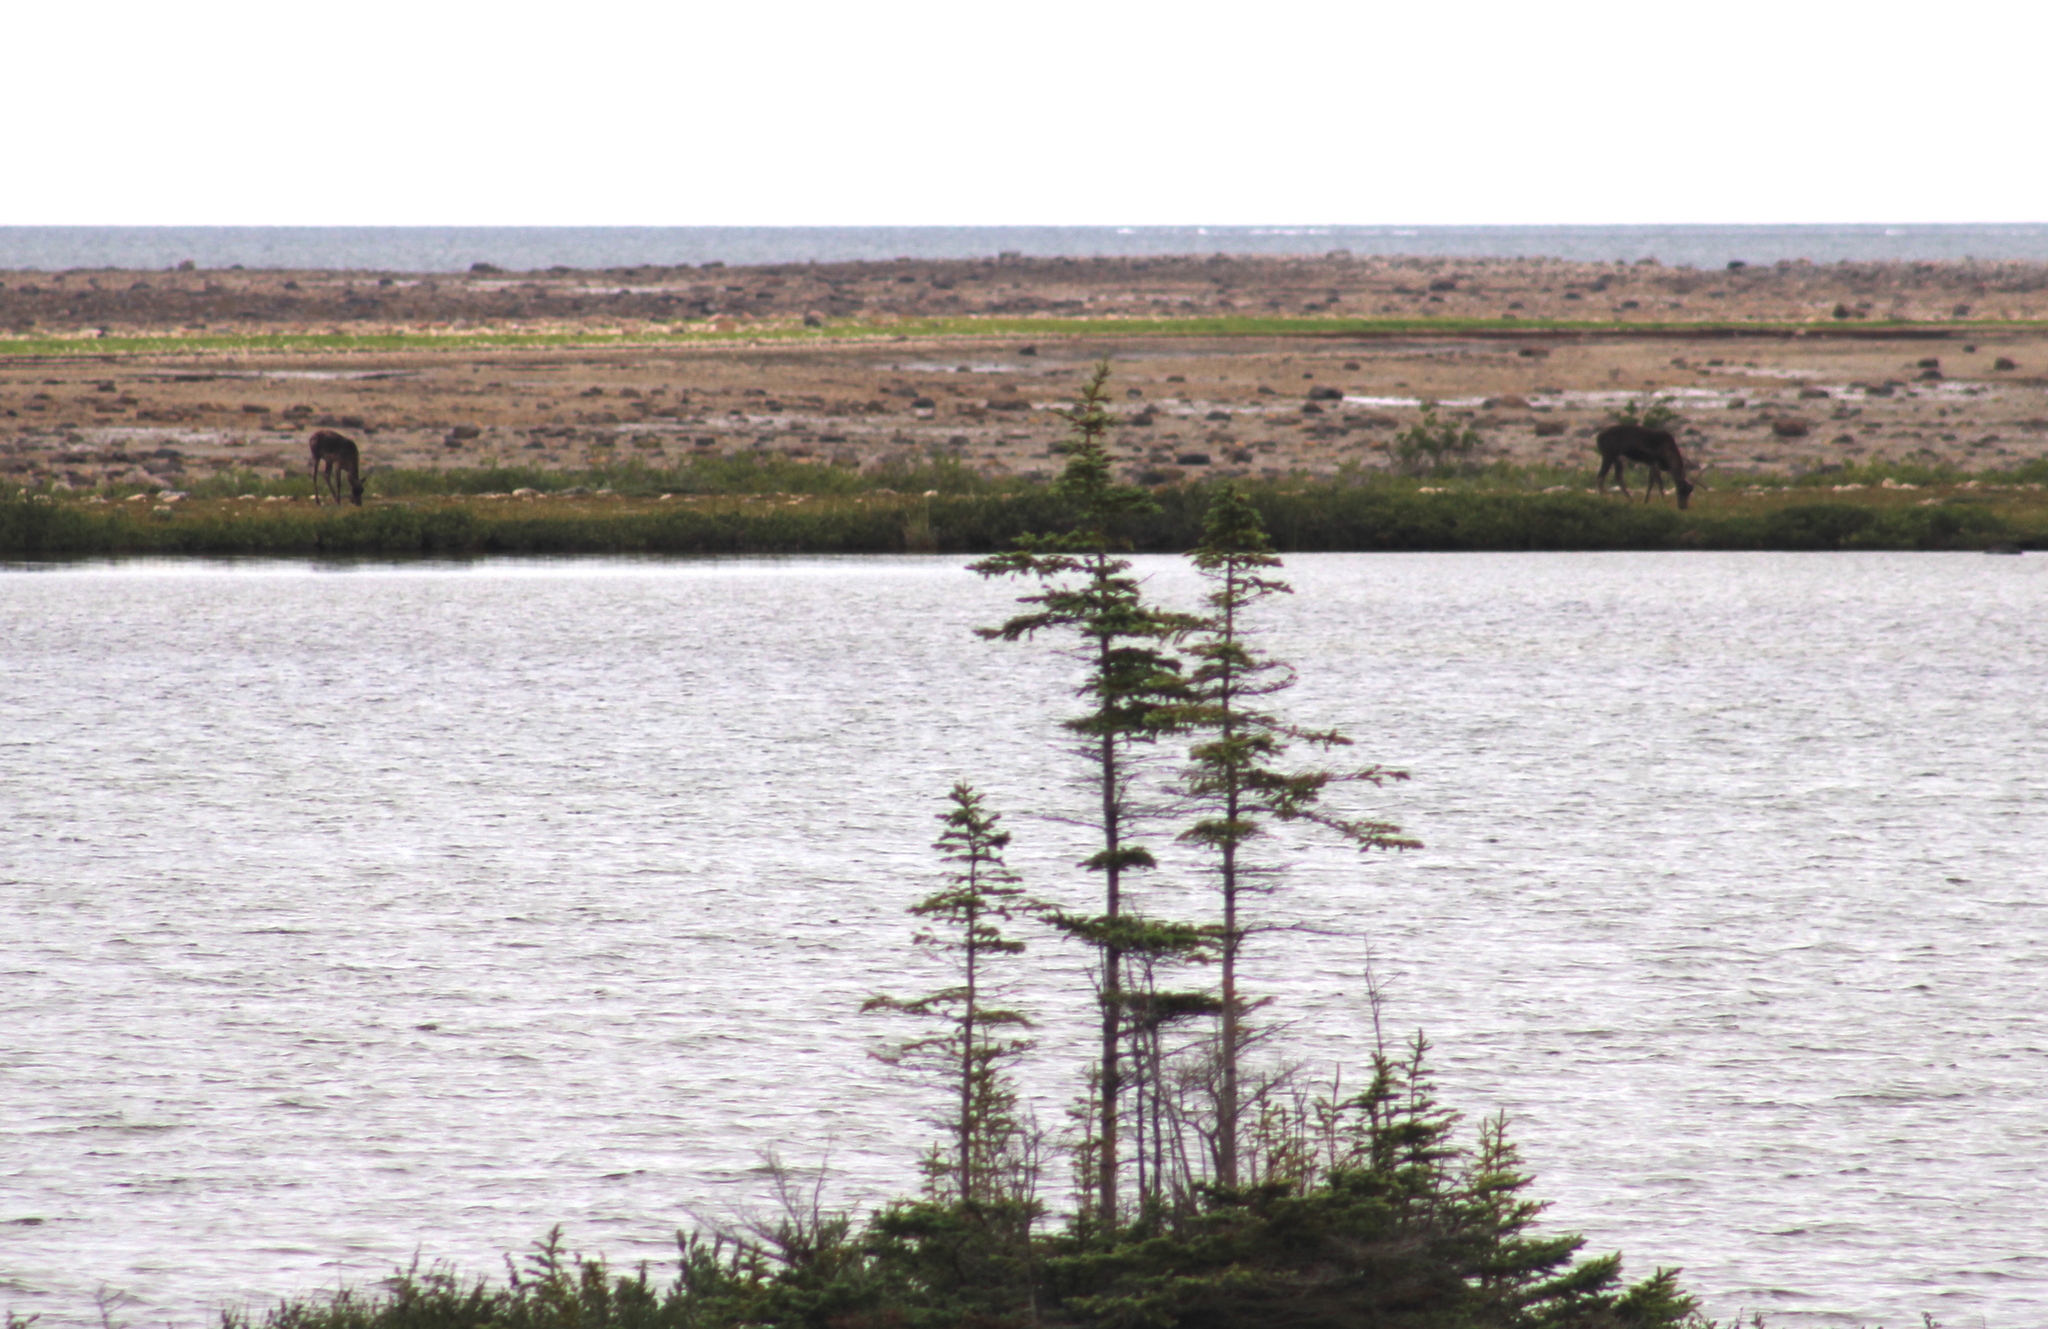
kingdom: Animalia
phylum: Chordata
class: Mammalia
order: Artiodactyla
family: Cervidae
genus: Rangifer
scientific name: Rangifer tarandus
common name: Reindeer
